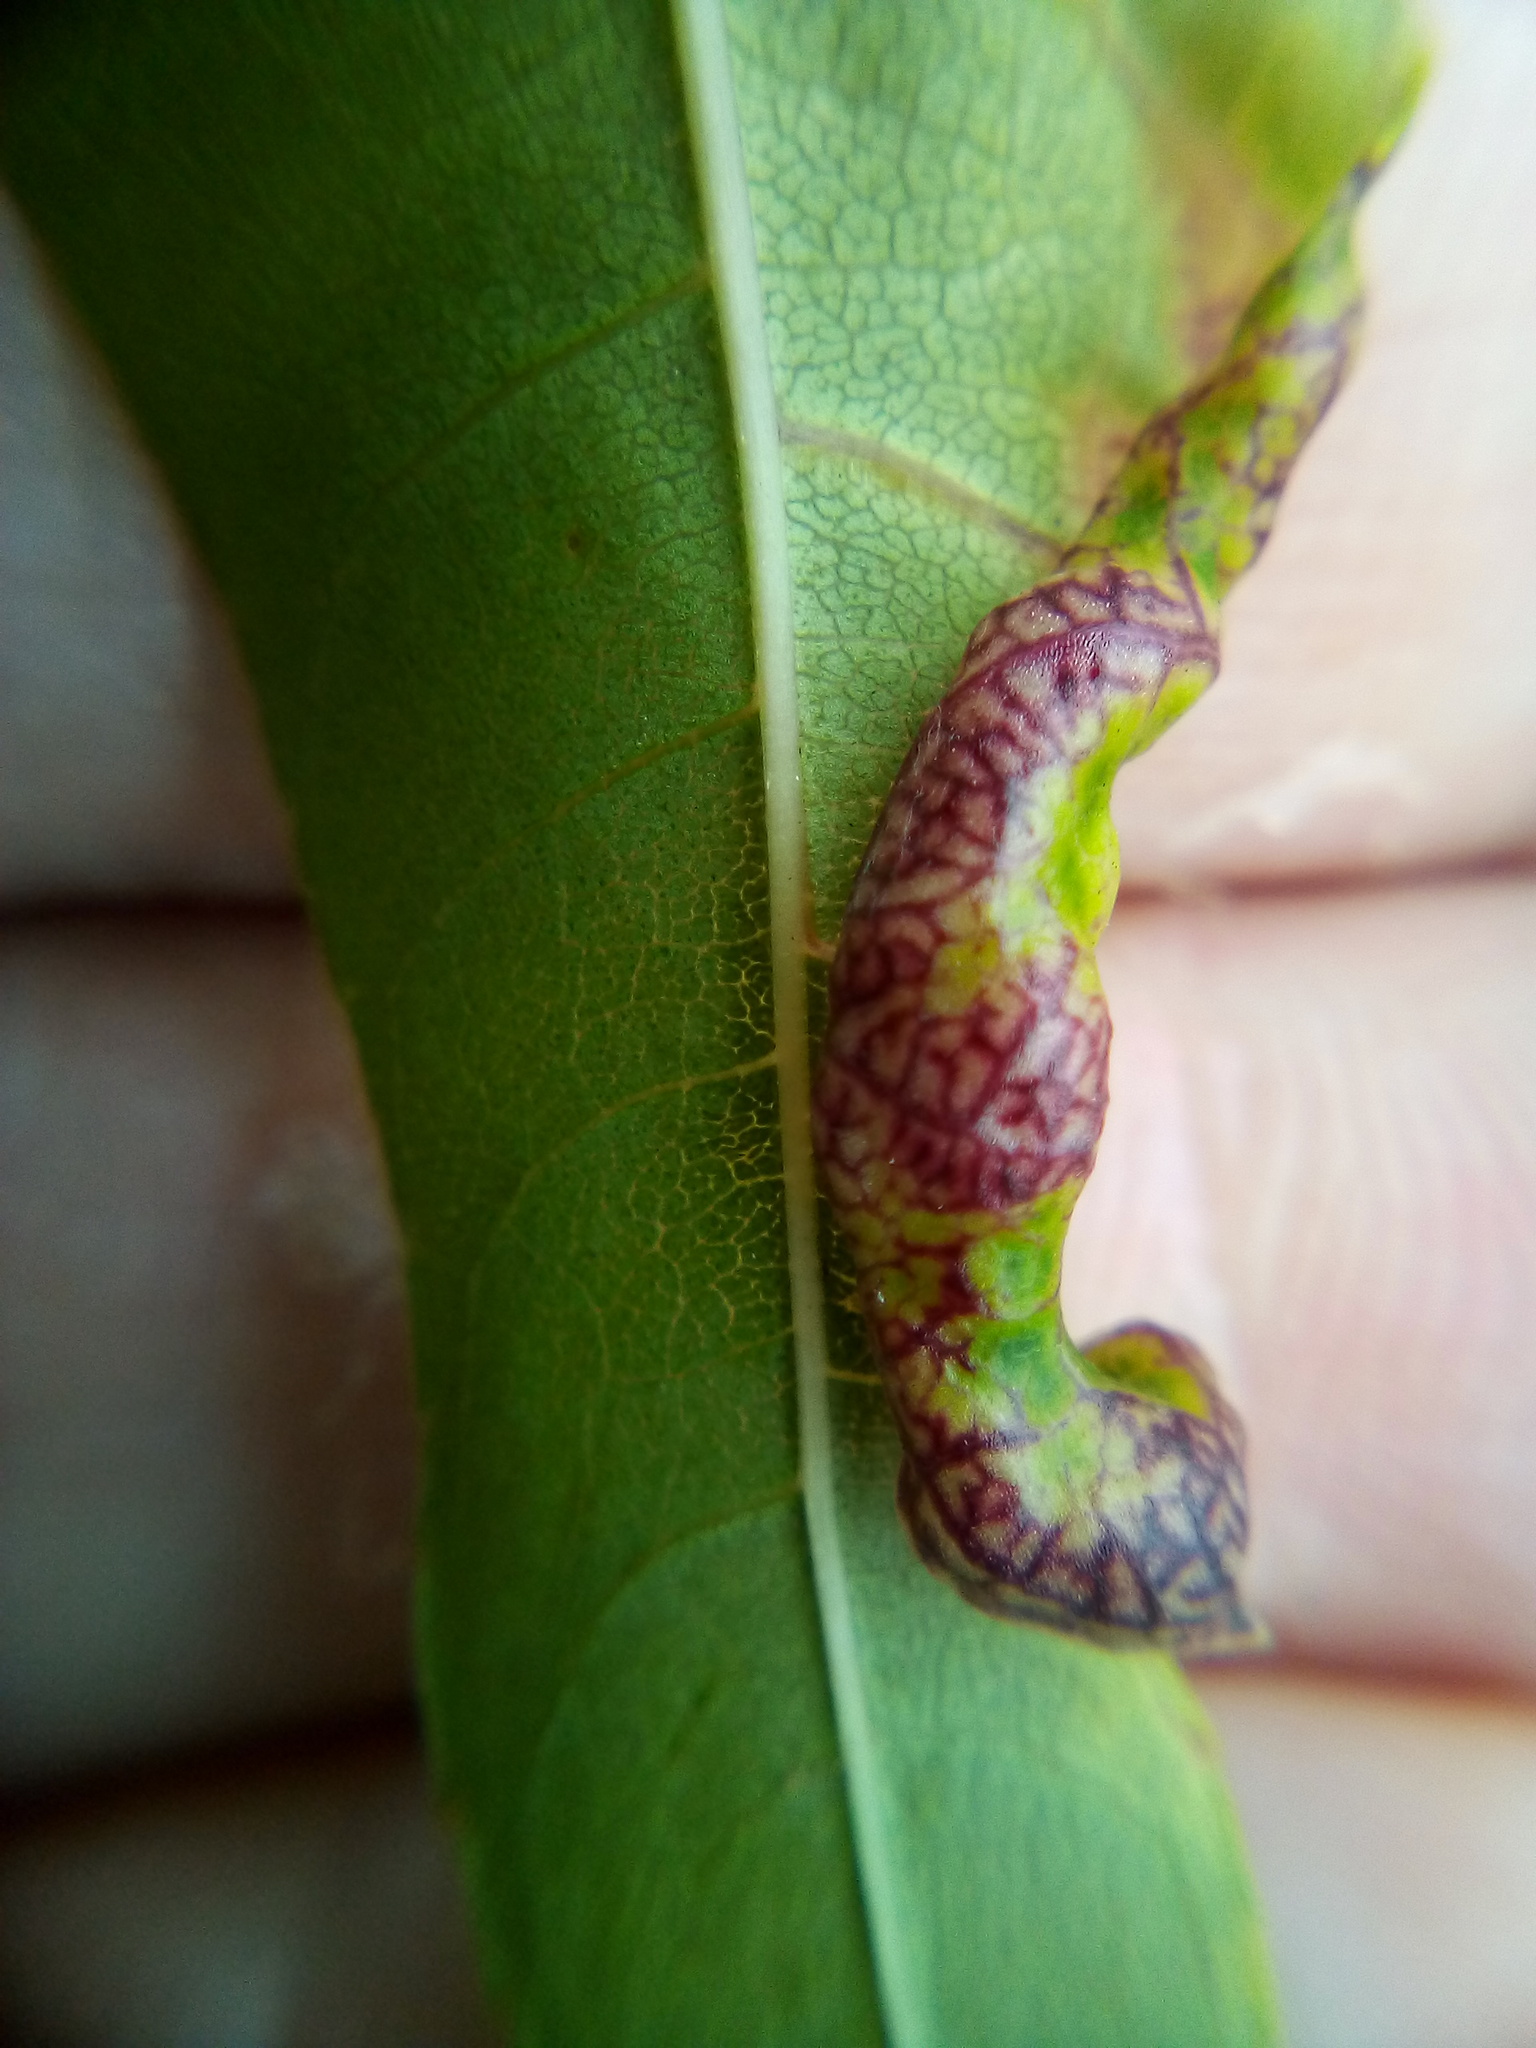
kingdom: Animalia
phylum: Arthropoda
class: Insecta
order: Hemiptera
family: Liviidae
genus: Psyllopsis
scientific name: Psyllopsis fraxini
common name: Jumping plant louse
